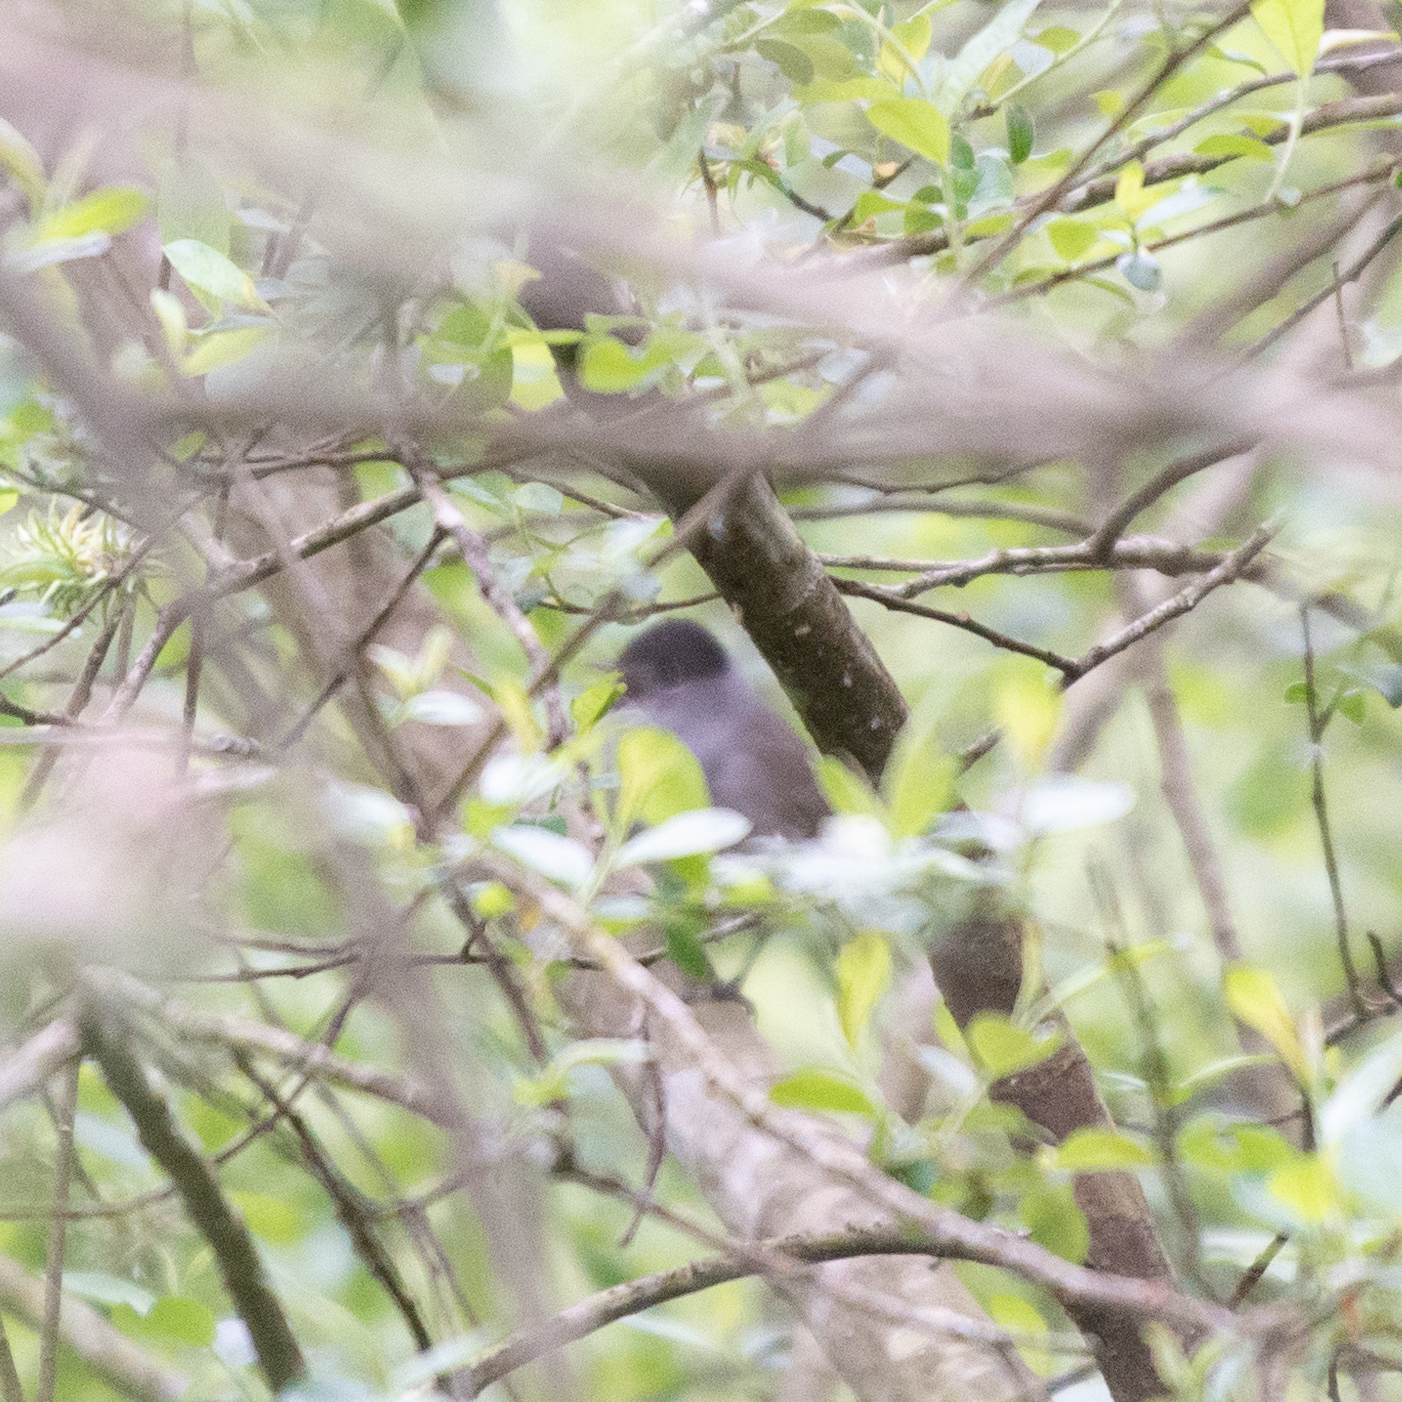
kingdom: Animalia
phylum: Chordata
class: Aves
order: Passeriformes
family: Sylviidae
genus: Sylvia
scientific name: Sylvia atricapilla
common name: Eurasian blackcap
